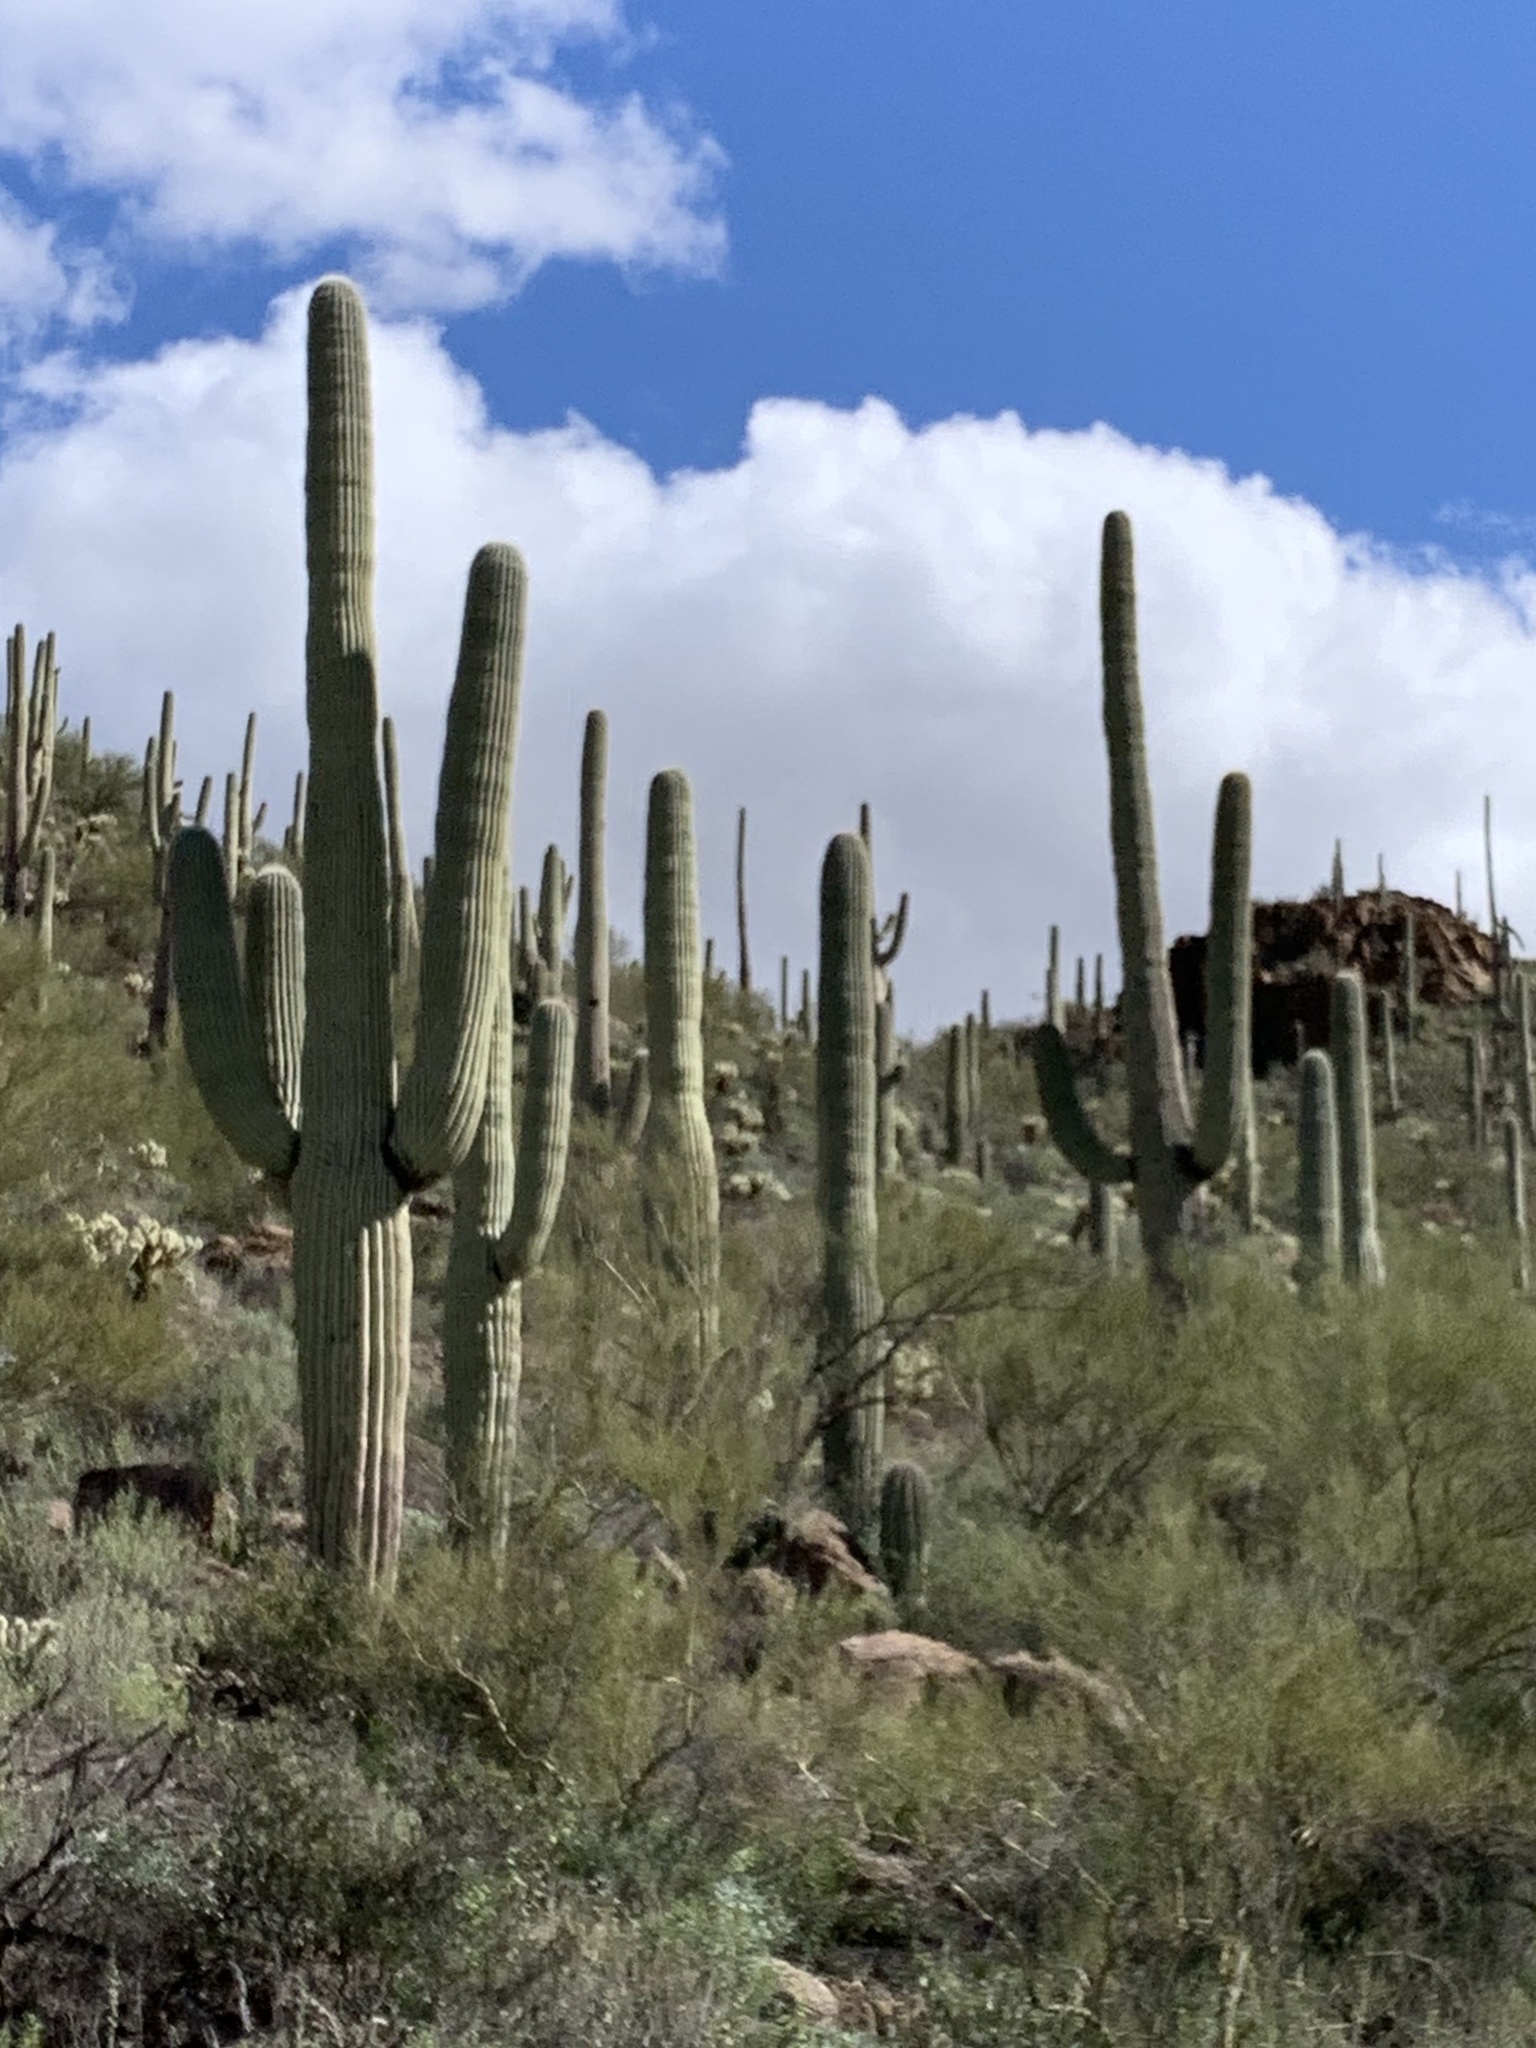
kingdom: Plantae
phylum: Tracheophyta
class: Magnoliopsida
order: Caryophyllales
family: Cactaceae
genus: Carnegiea
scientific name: Carnegiea gigantea
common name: Saguaro
